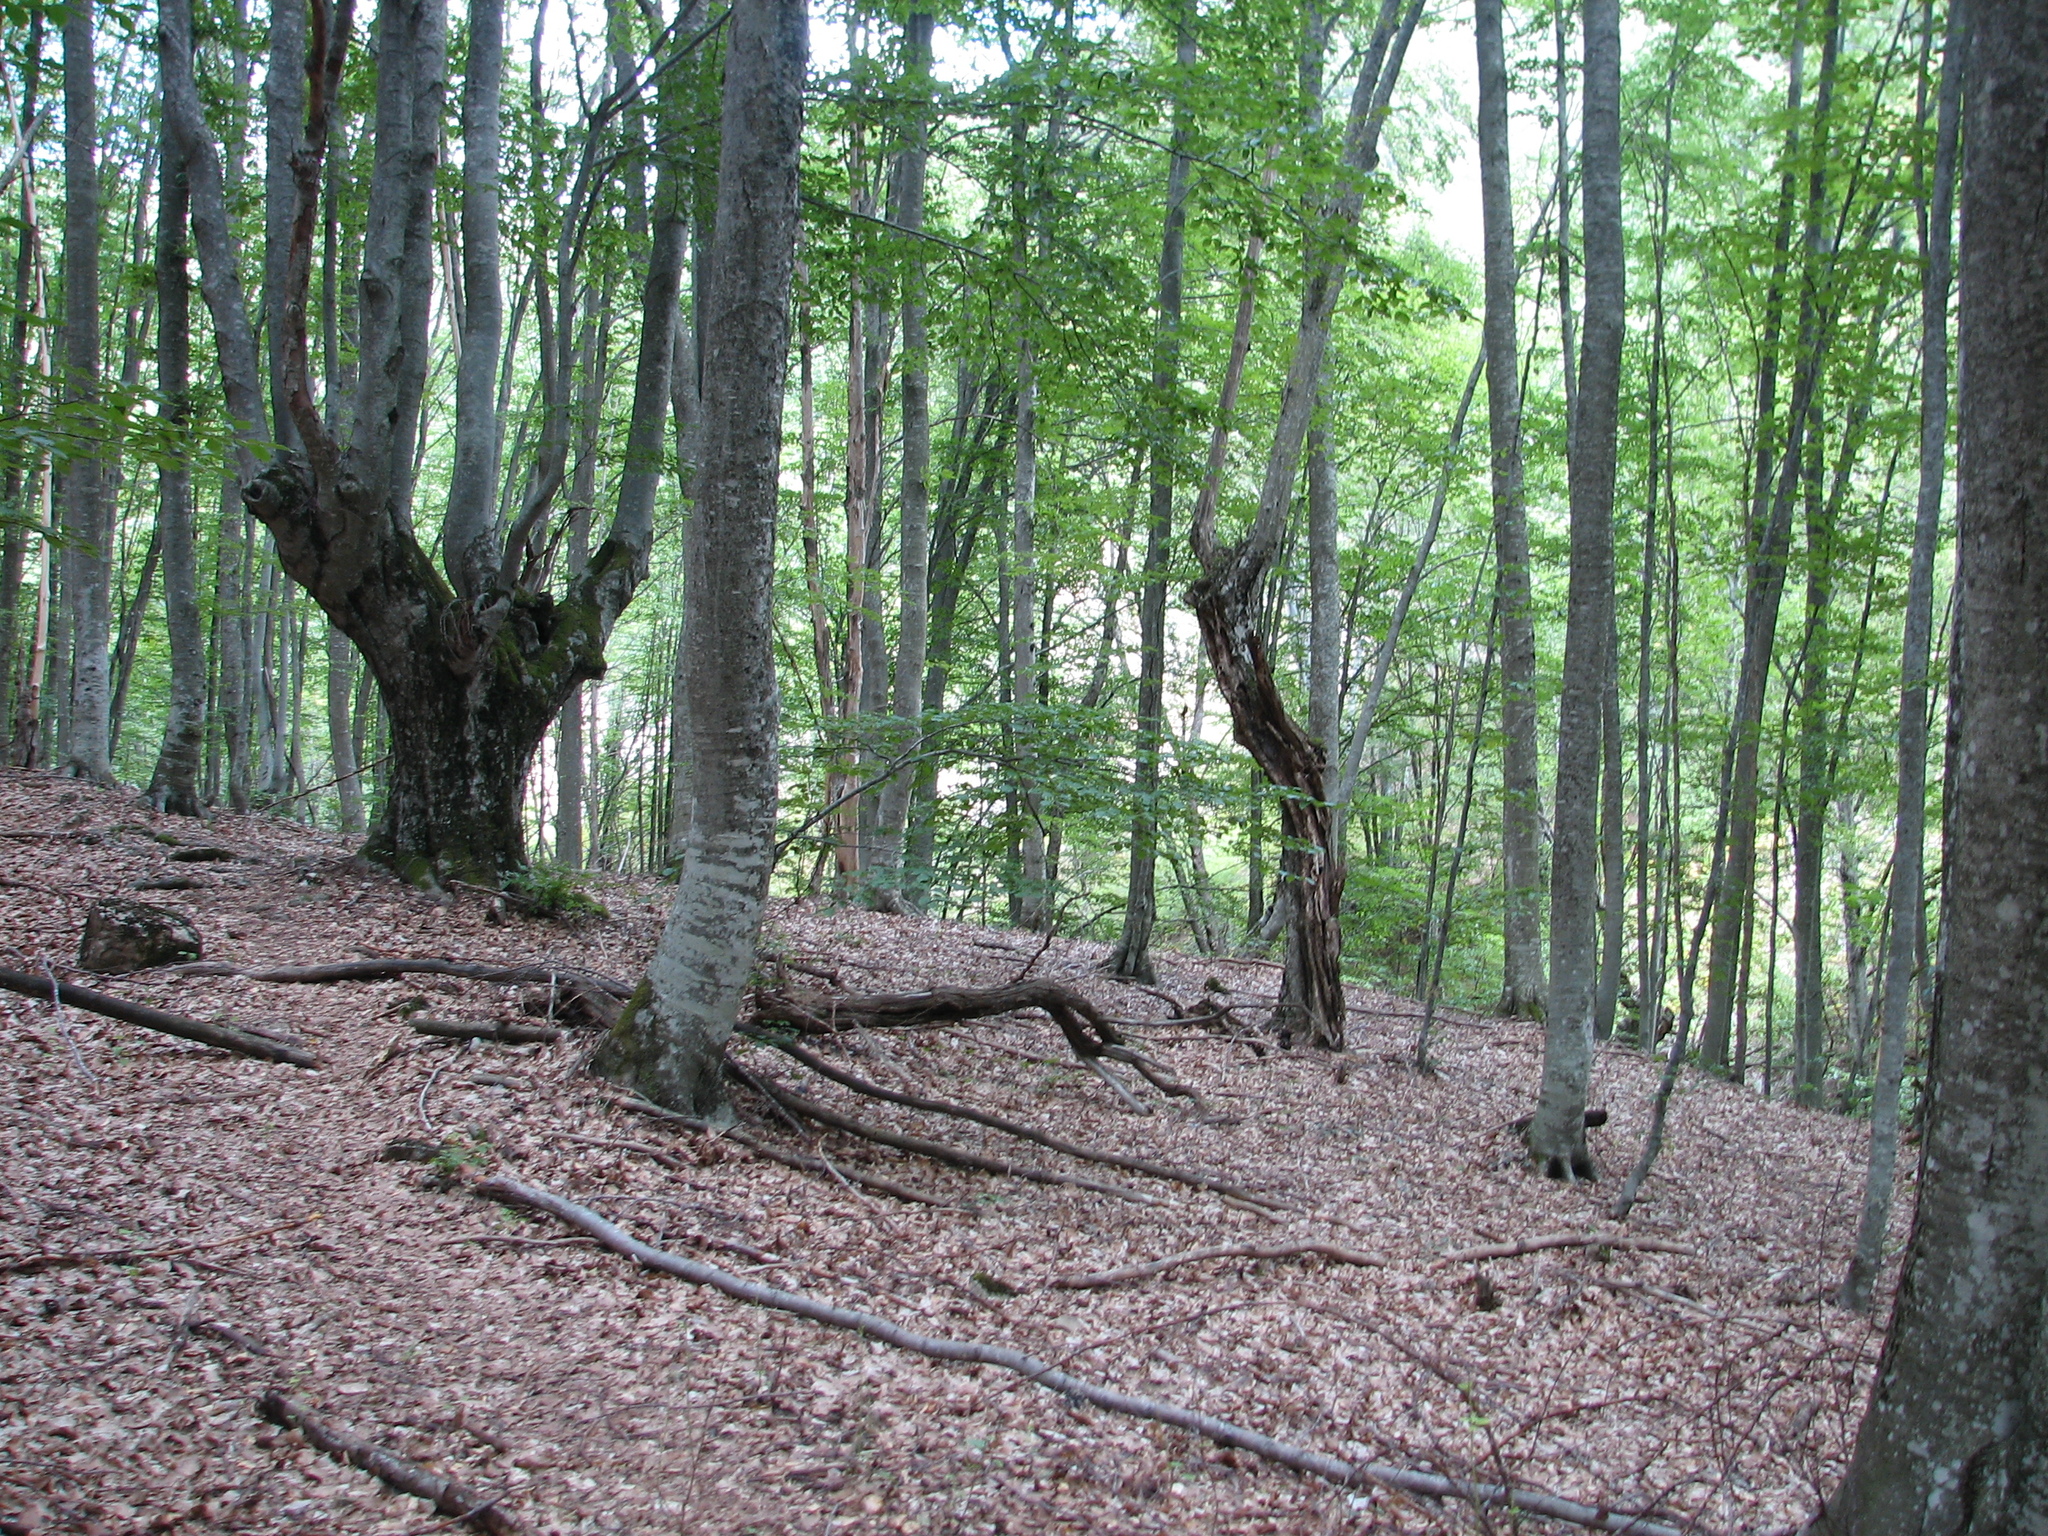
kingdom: Plantae
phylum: Tracheophyta
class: Magnoliopsida
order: Fagales
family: Fagaceae
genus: Fagus
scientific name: Fagus taurica
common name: Crimean beech
